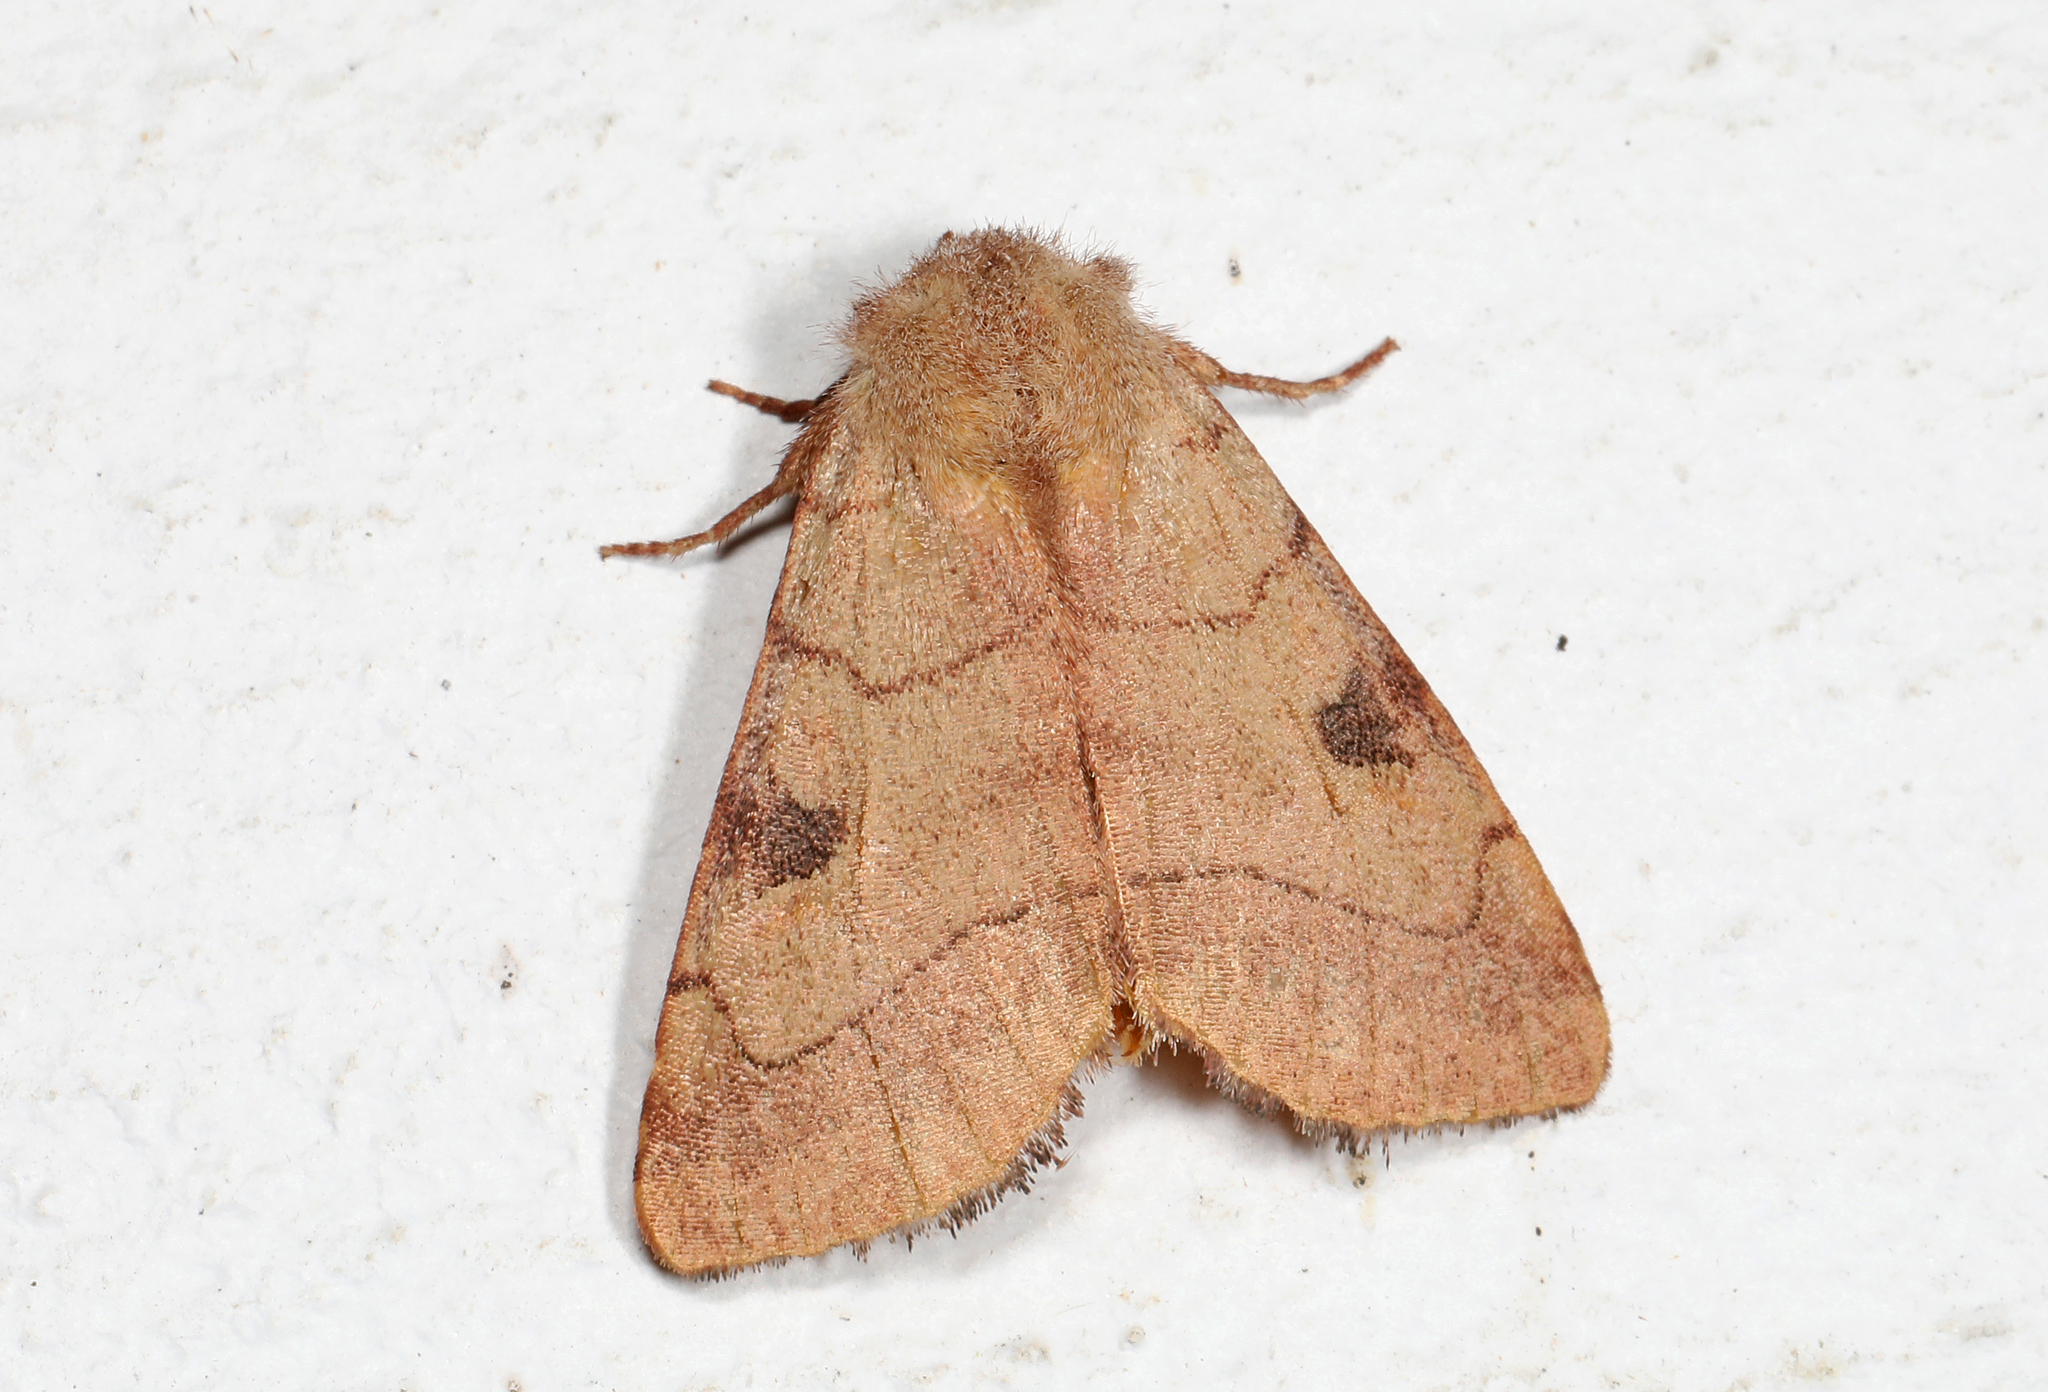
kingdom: Animalia
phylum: Arthropoda
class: Insecta
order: Lepidoptera
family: Noctuidae
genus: Choephora
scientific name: Choephora fungorum
